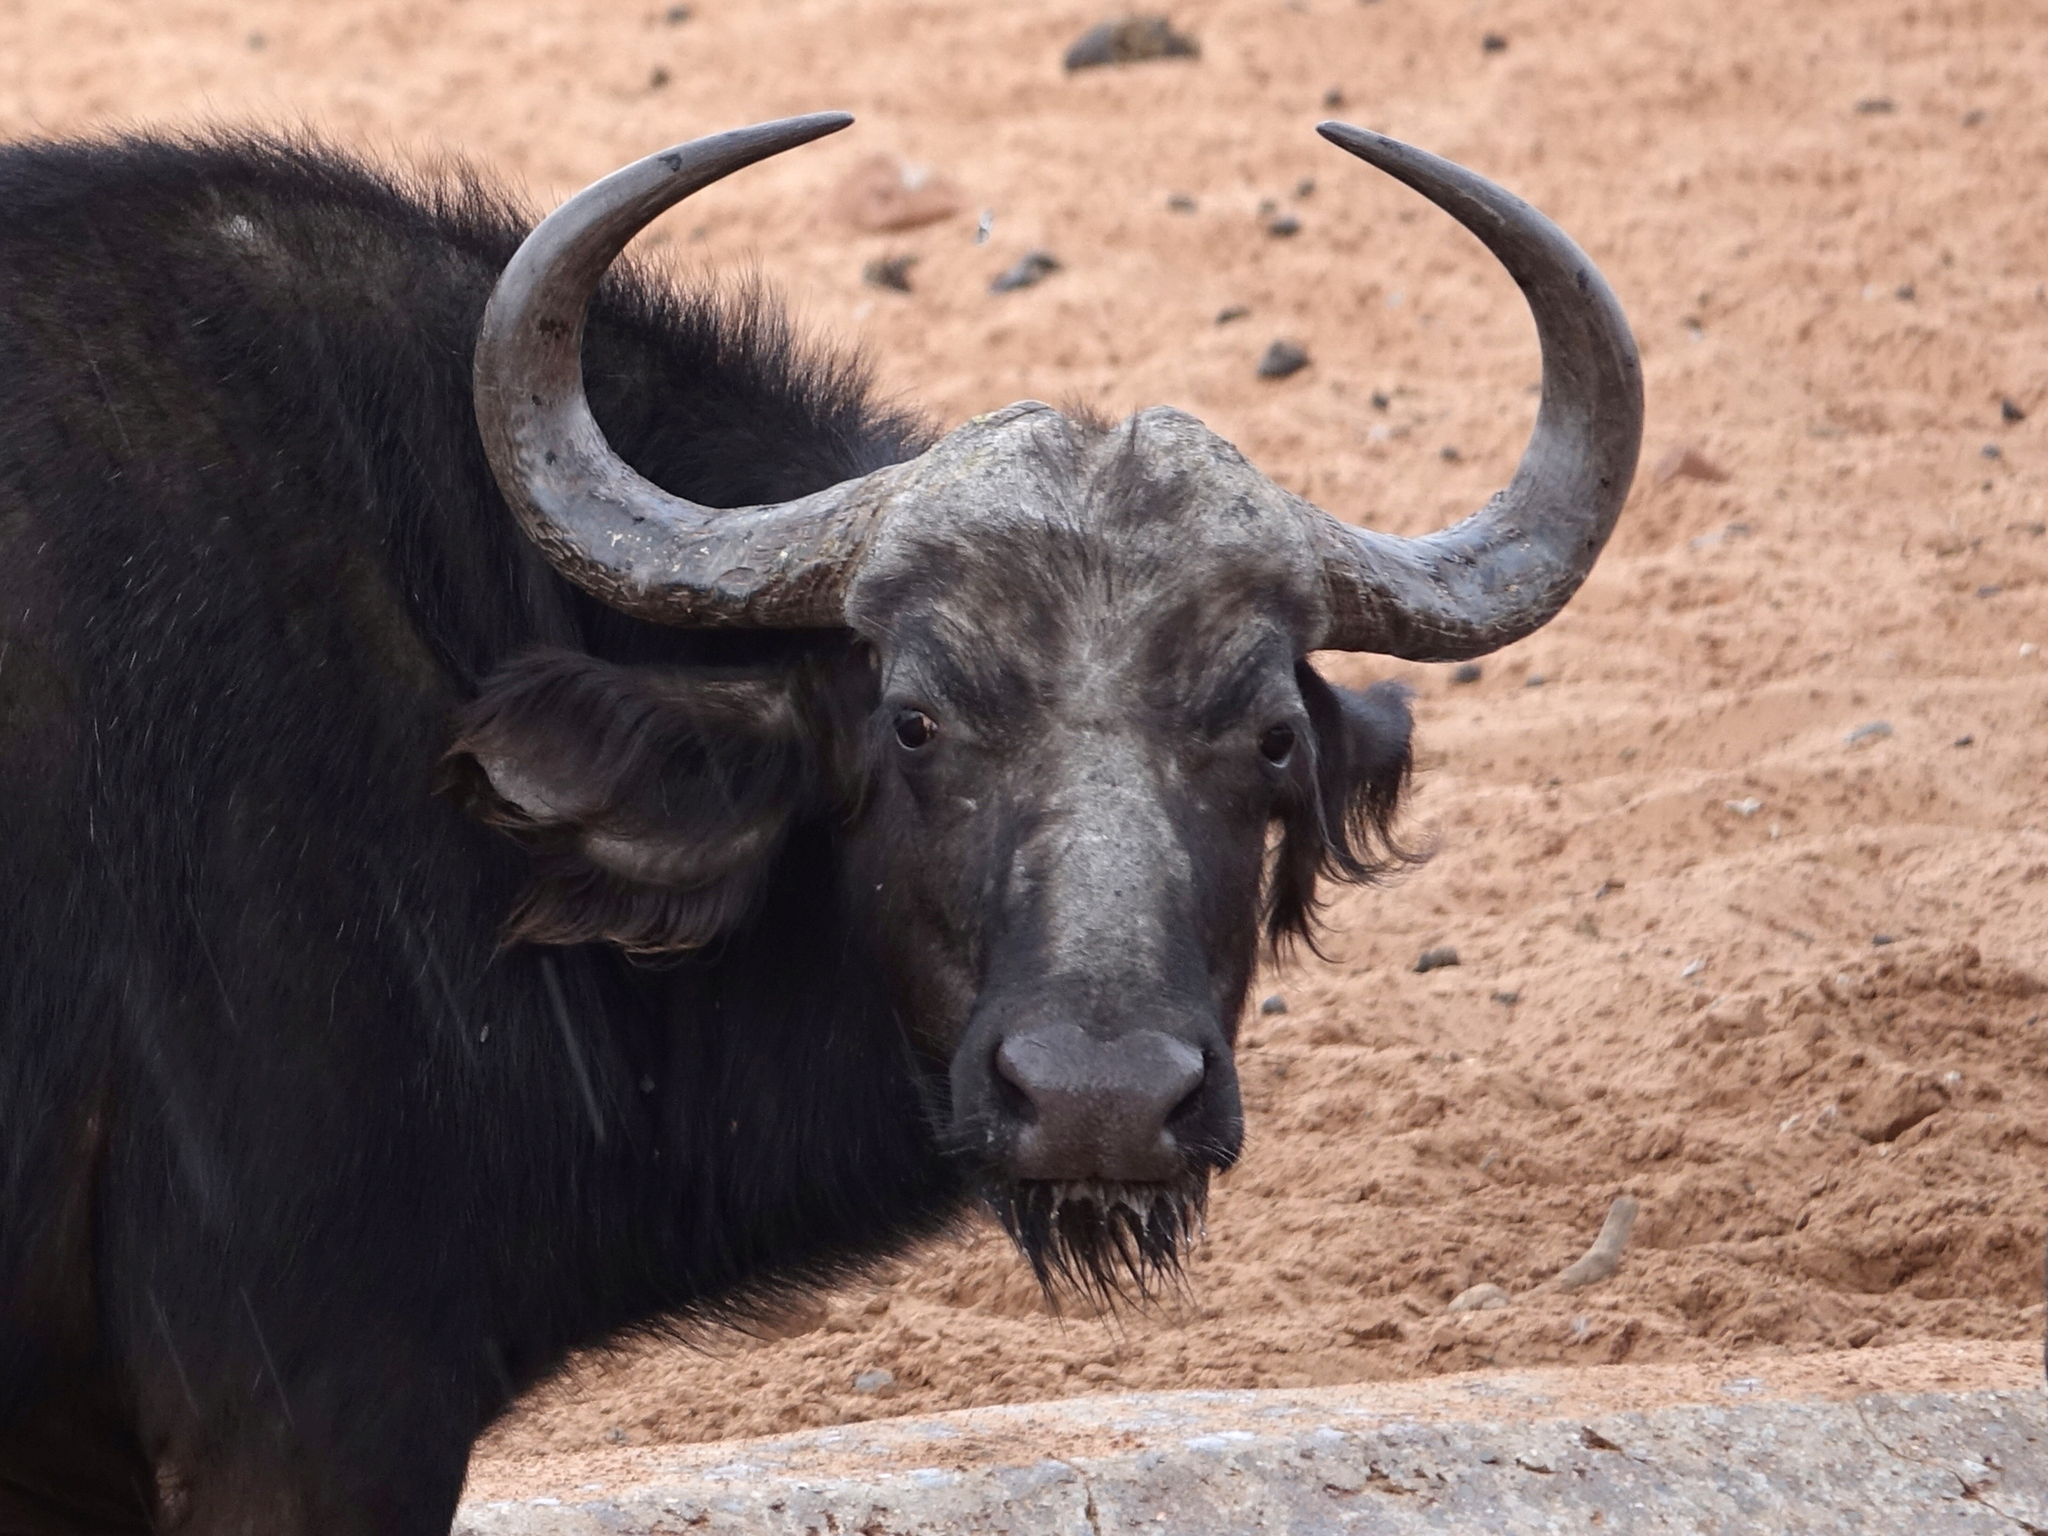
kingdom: Animalia
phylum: Chordata
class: Mammalia
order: Artiodactyla
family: Bovidae
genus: Syncerus
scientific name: Syncerus caffer
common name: African buffalo
